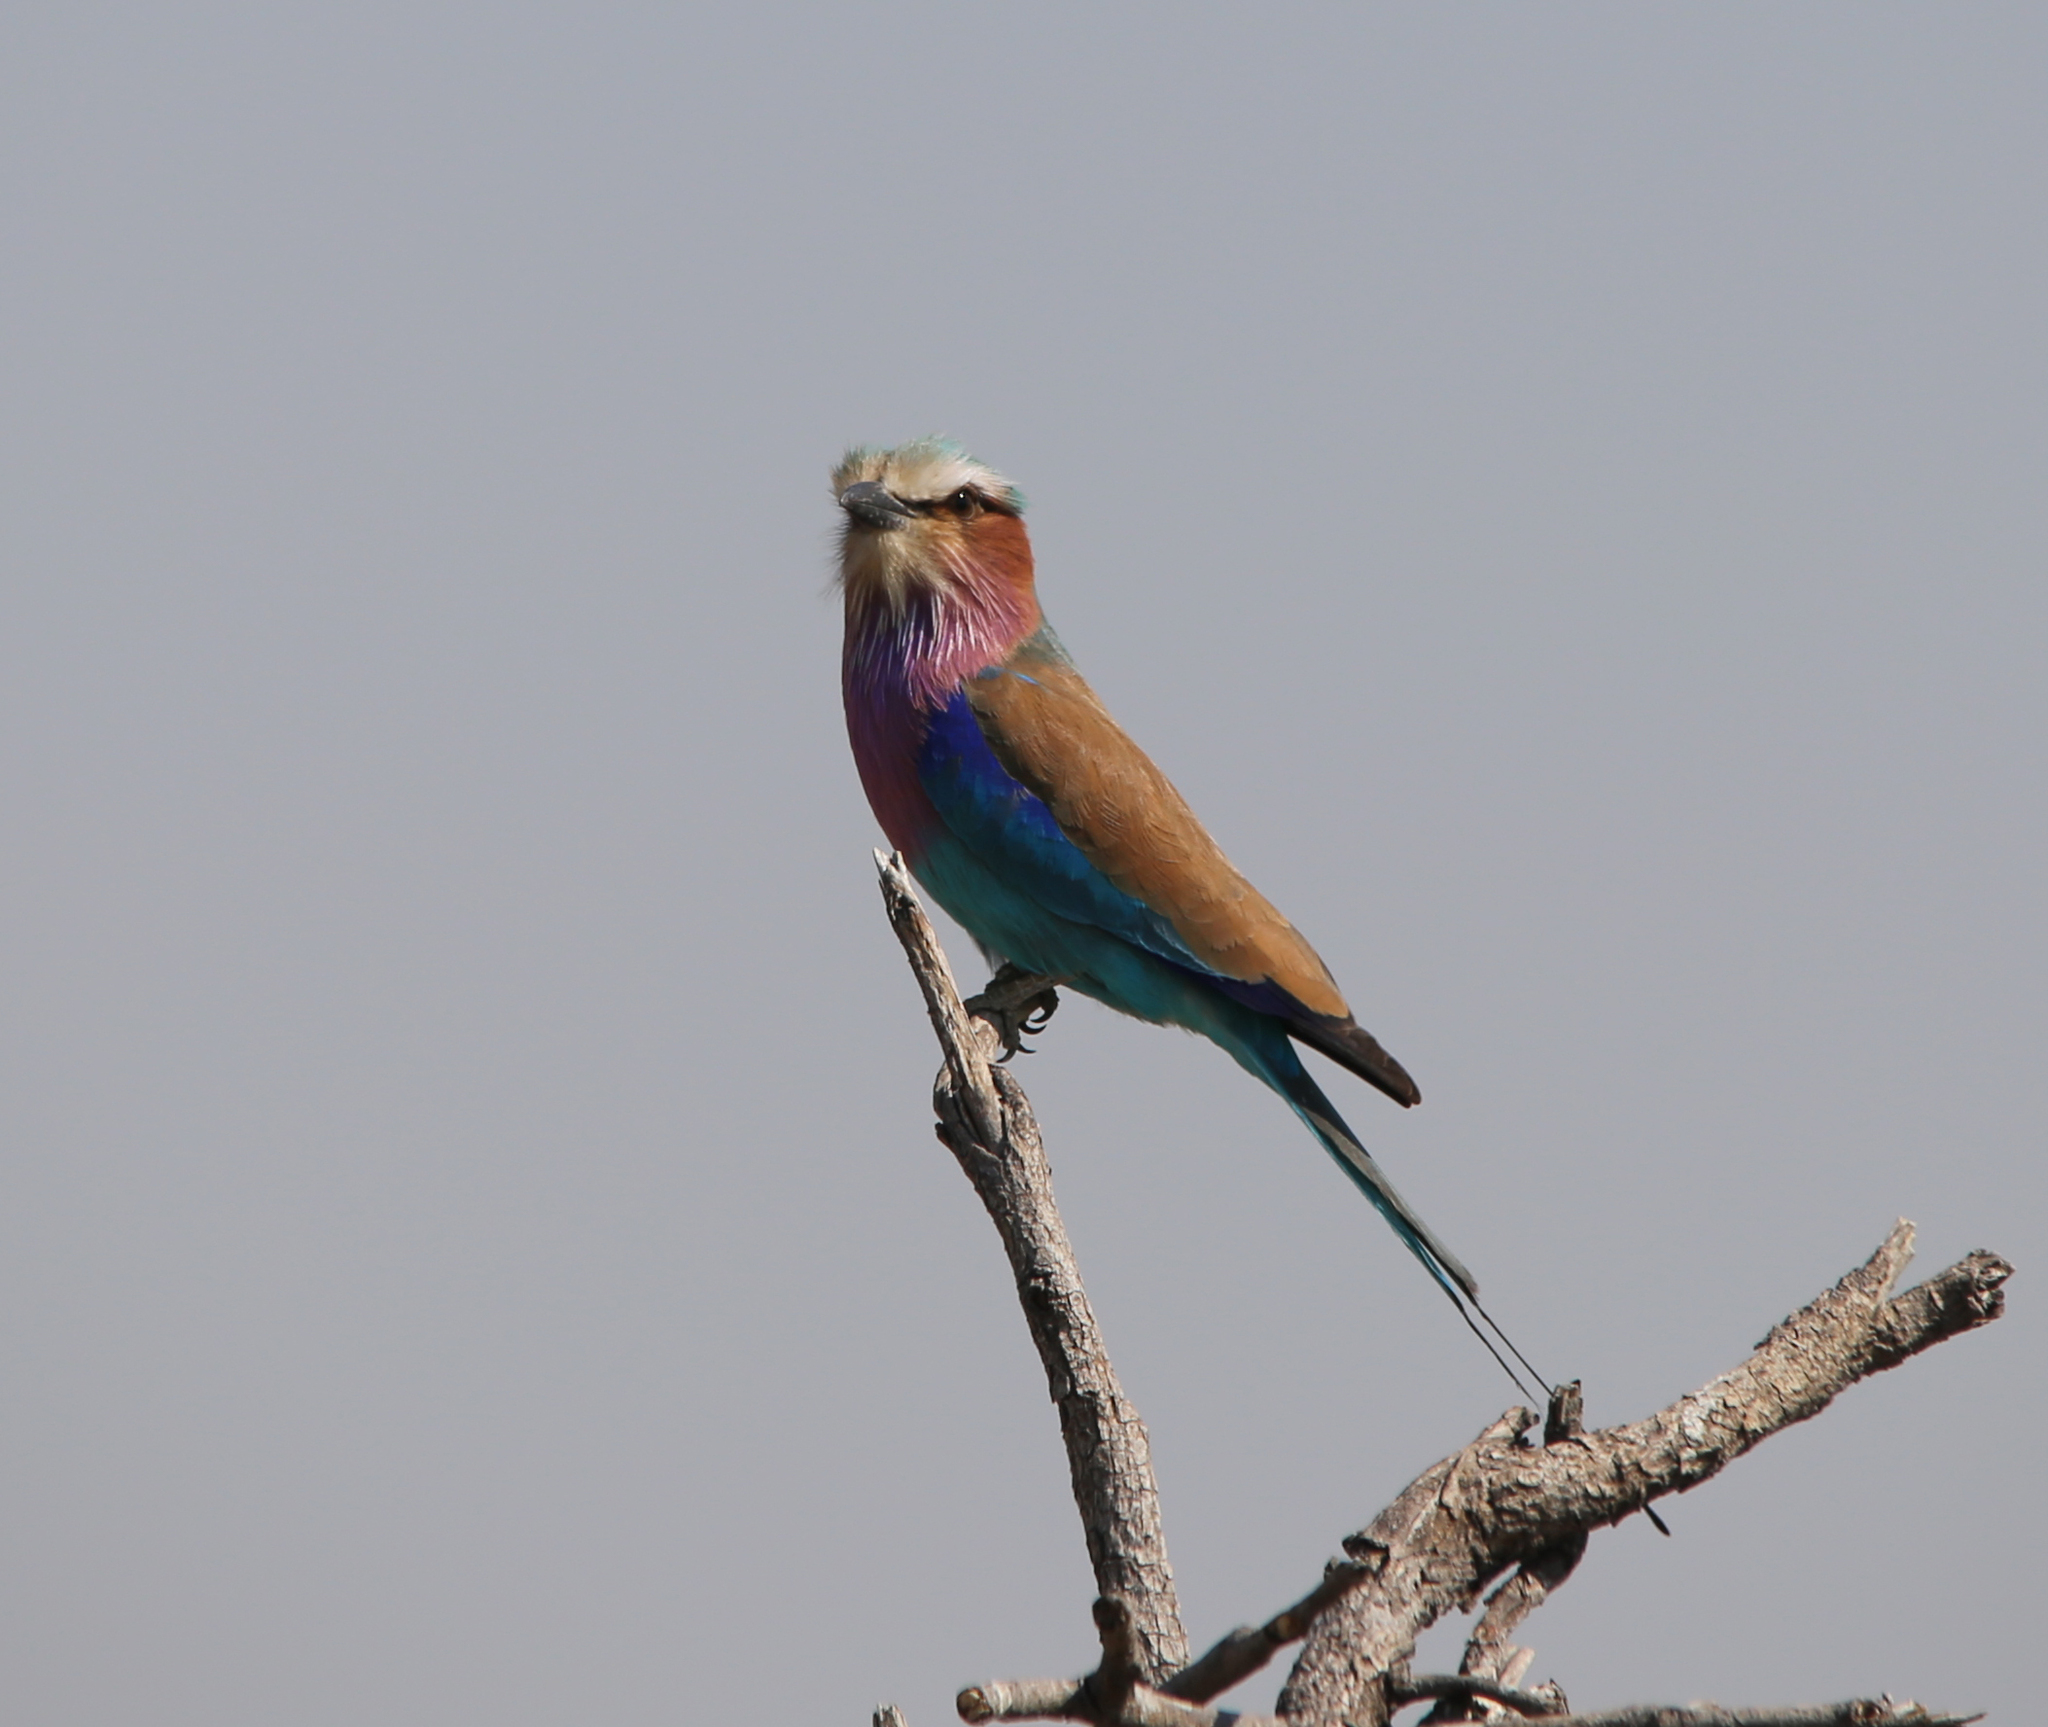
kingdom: Animalia
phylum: Chordata
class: Aves
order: Coraciiformes
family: Coraciidae
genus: Coracias
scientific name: Coracias caudatus
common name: Lilac-breasted roller
